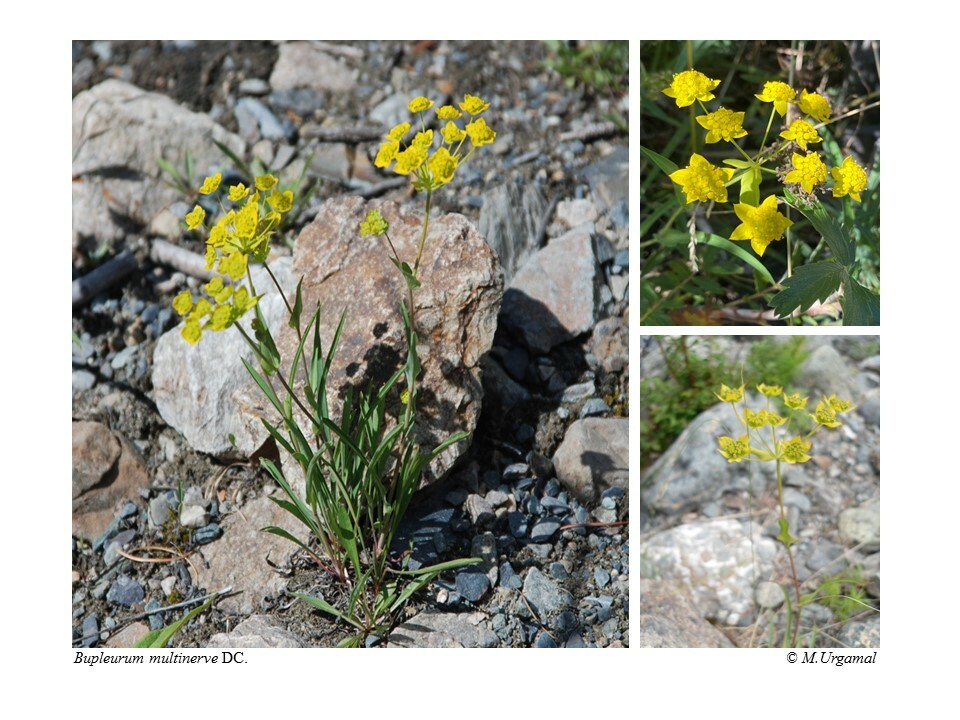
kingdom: Plantae
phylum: Tracheophyta
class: Magnoliopsida
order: Apiales
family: Apiaceae
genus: Bupleurum
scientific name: Bupleurum multinerve
